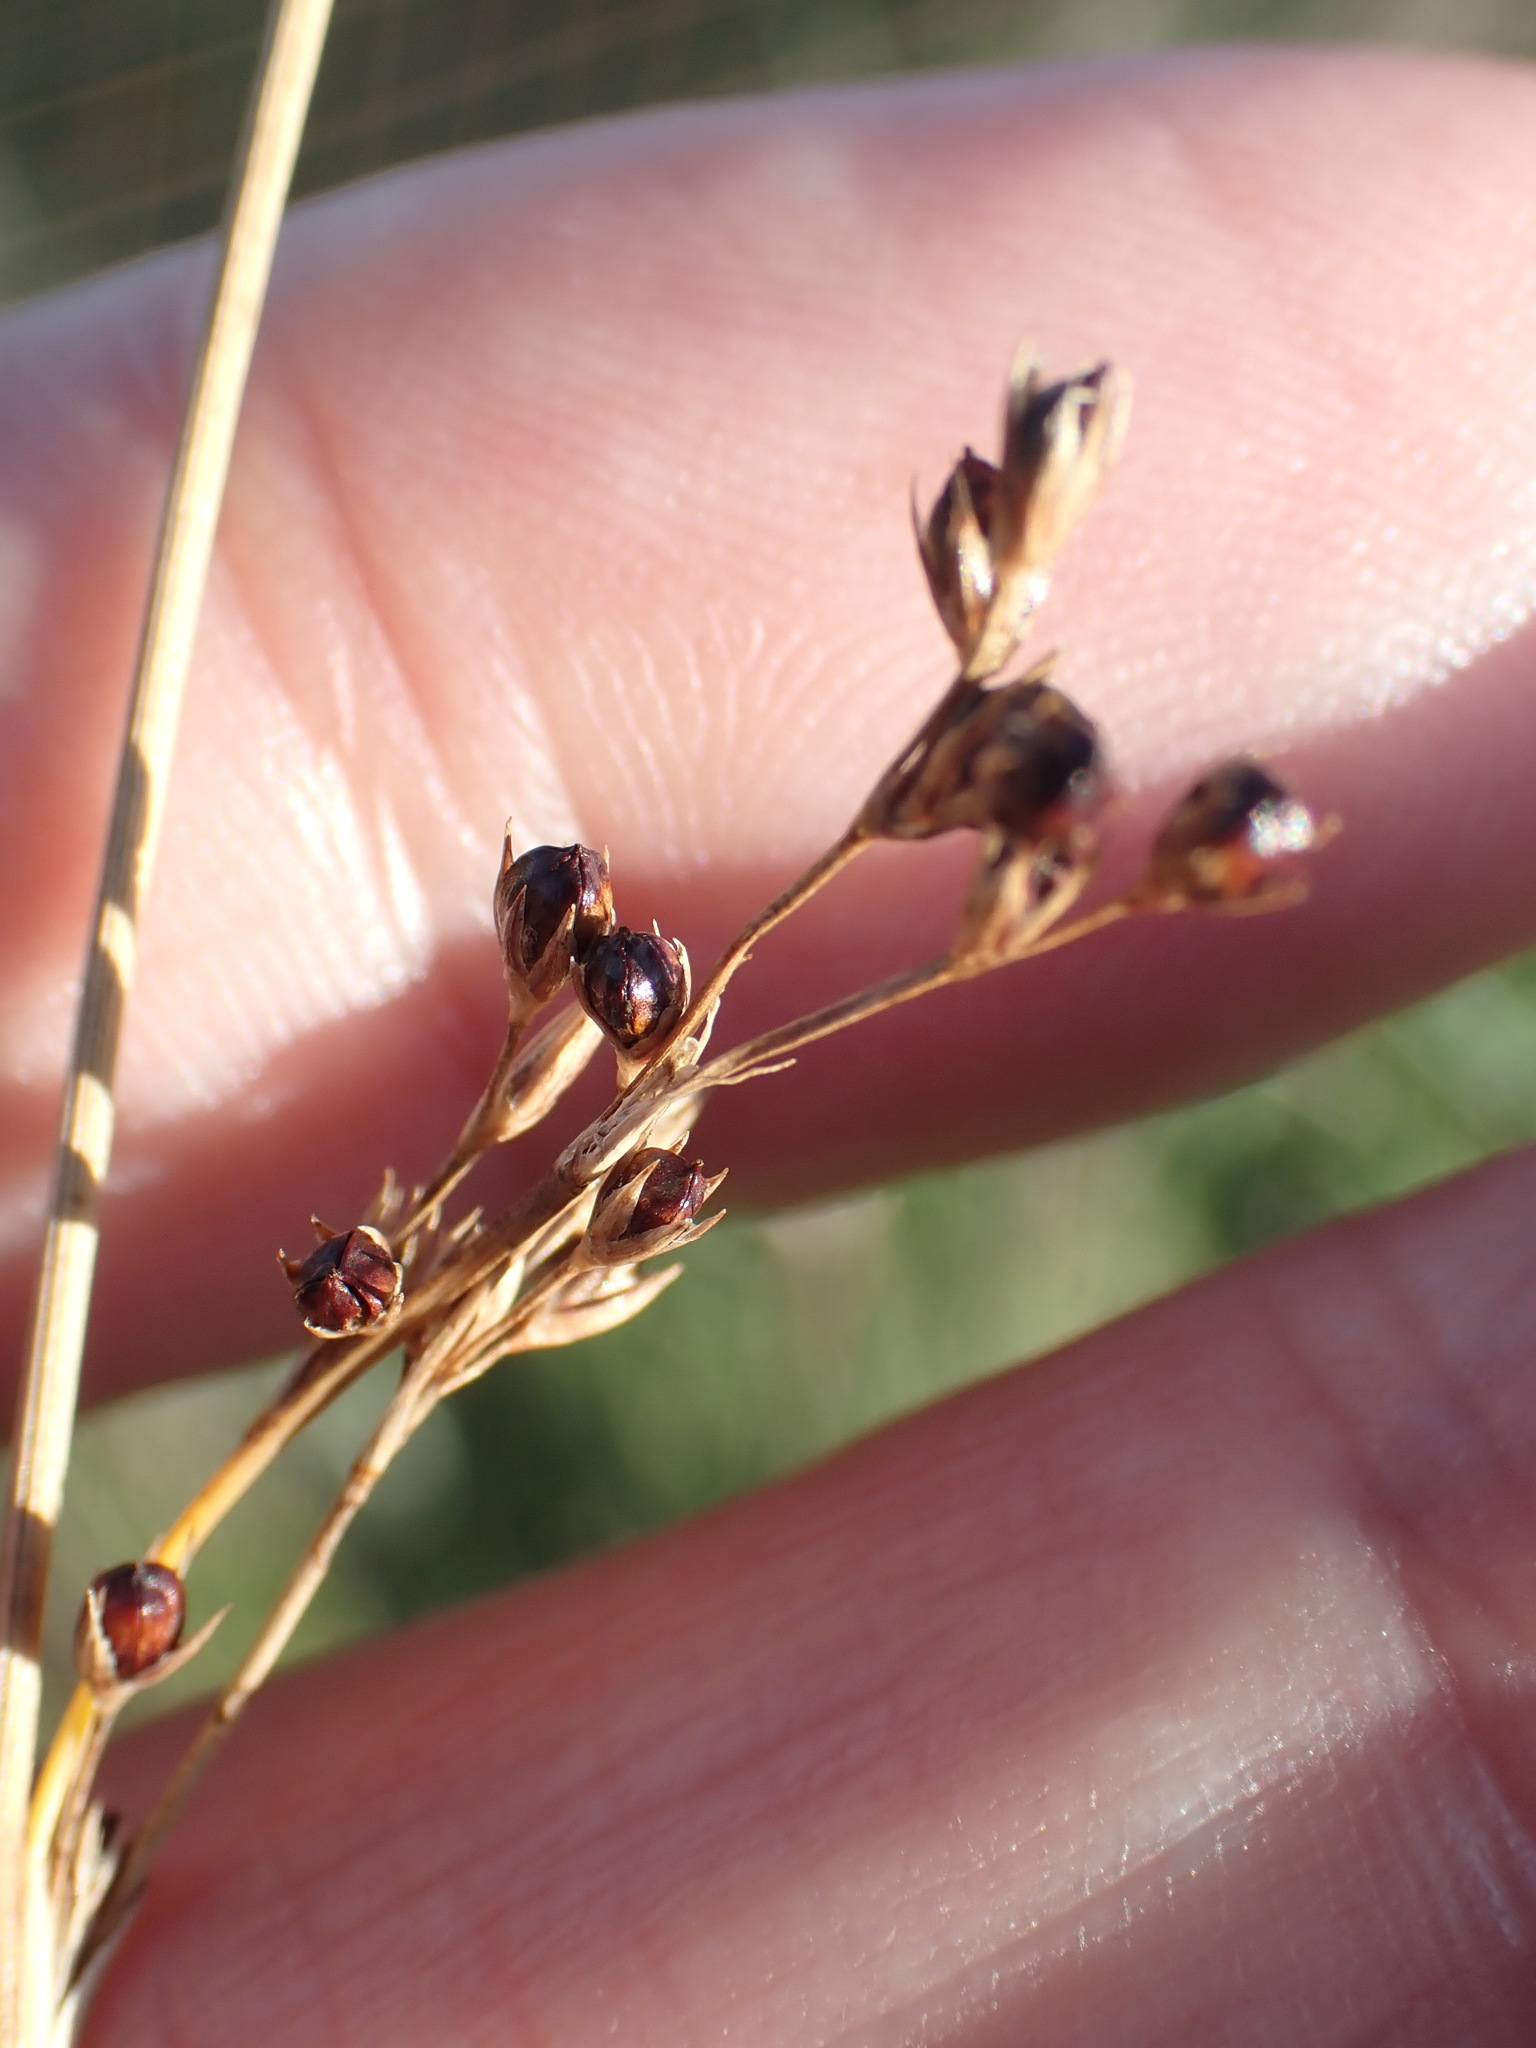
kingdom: Plantae
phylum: Tracheophyta
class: Liliopsida
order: Poales
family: Juncaceae
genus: Juncus
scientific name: Juncus inflexus
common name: Hard rush
